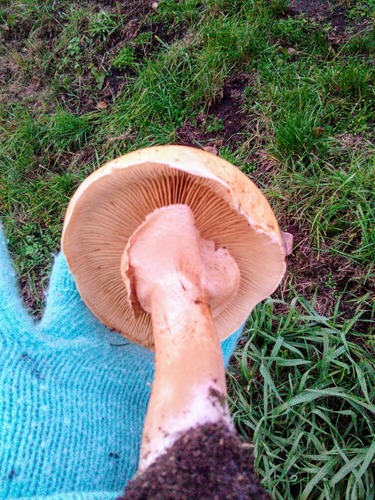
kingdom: Fungi
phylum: Basidiomycota
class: Agaricomycetes
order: Agaricales
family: Tricholomataceae
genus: Phaeolepiota
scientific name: Phaeolepiota aurea
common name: Golden bootleg
